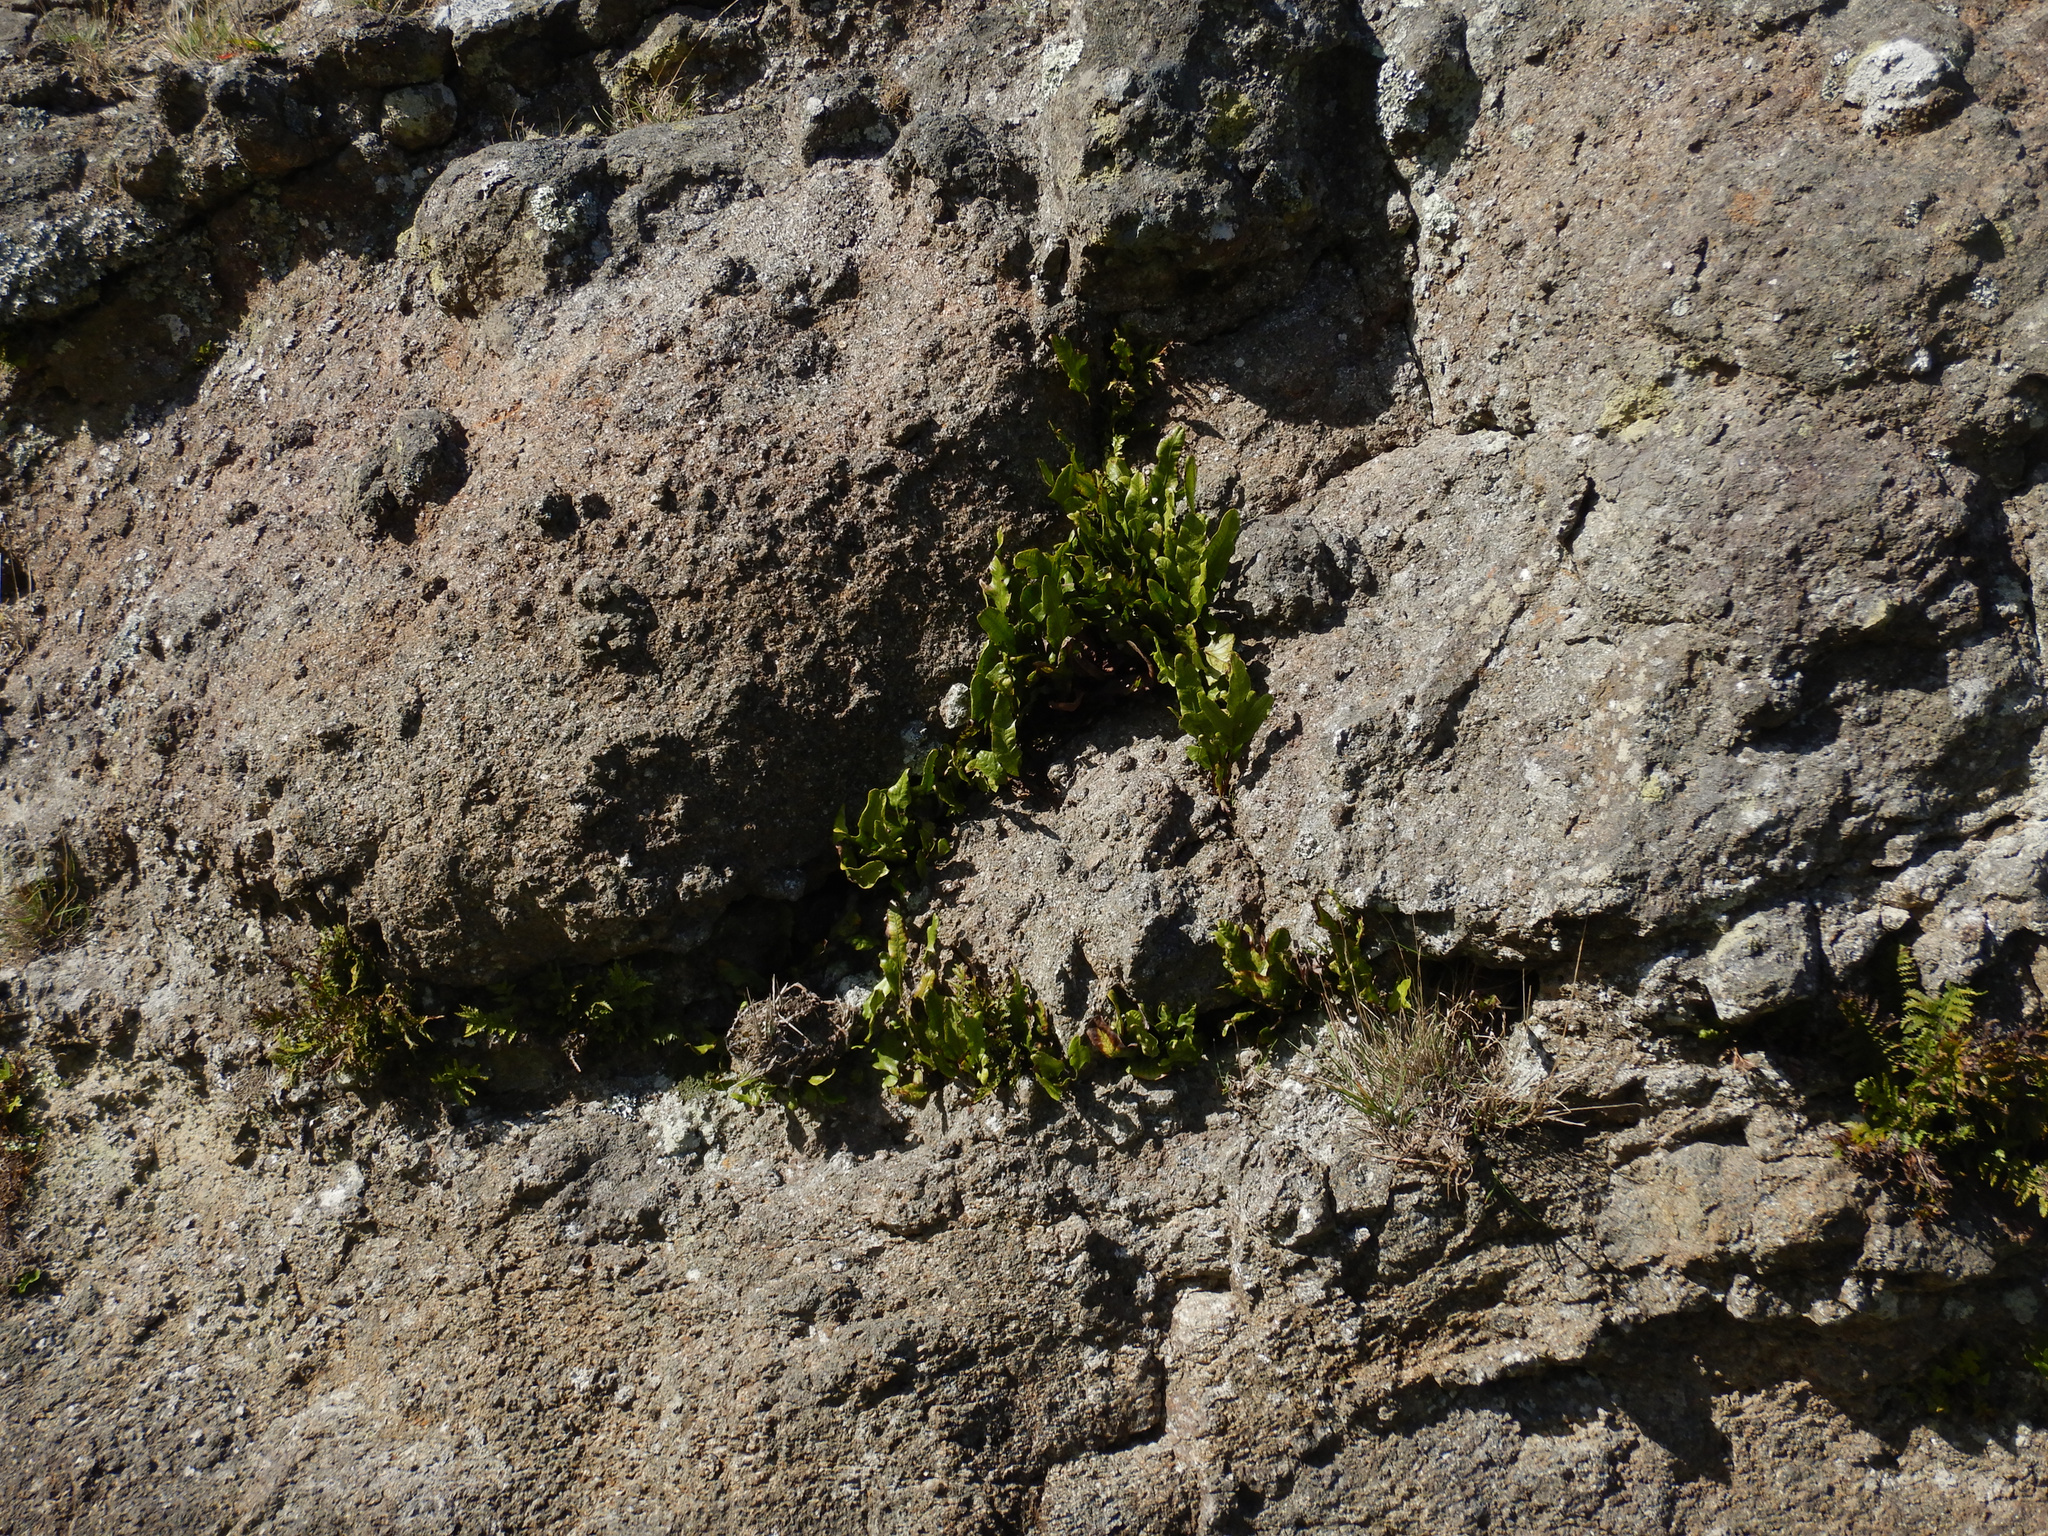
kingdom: Plantae
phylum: Tracheophyta
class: Polypodiopsida
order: Polypodiales
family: Polypodiaceae
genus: Lecanopteris
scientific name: Lecanopteris pustulata
